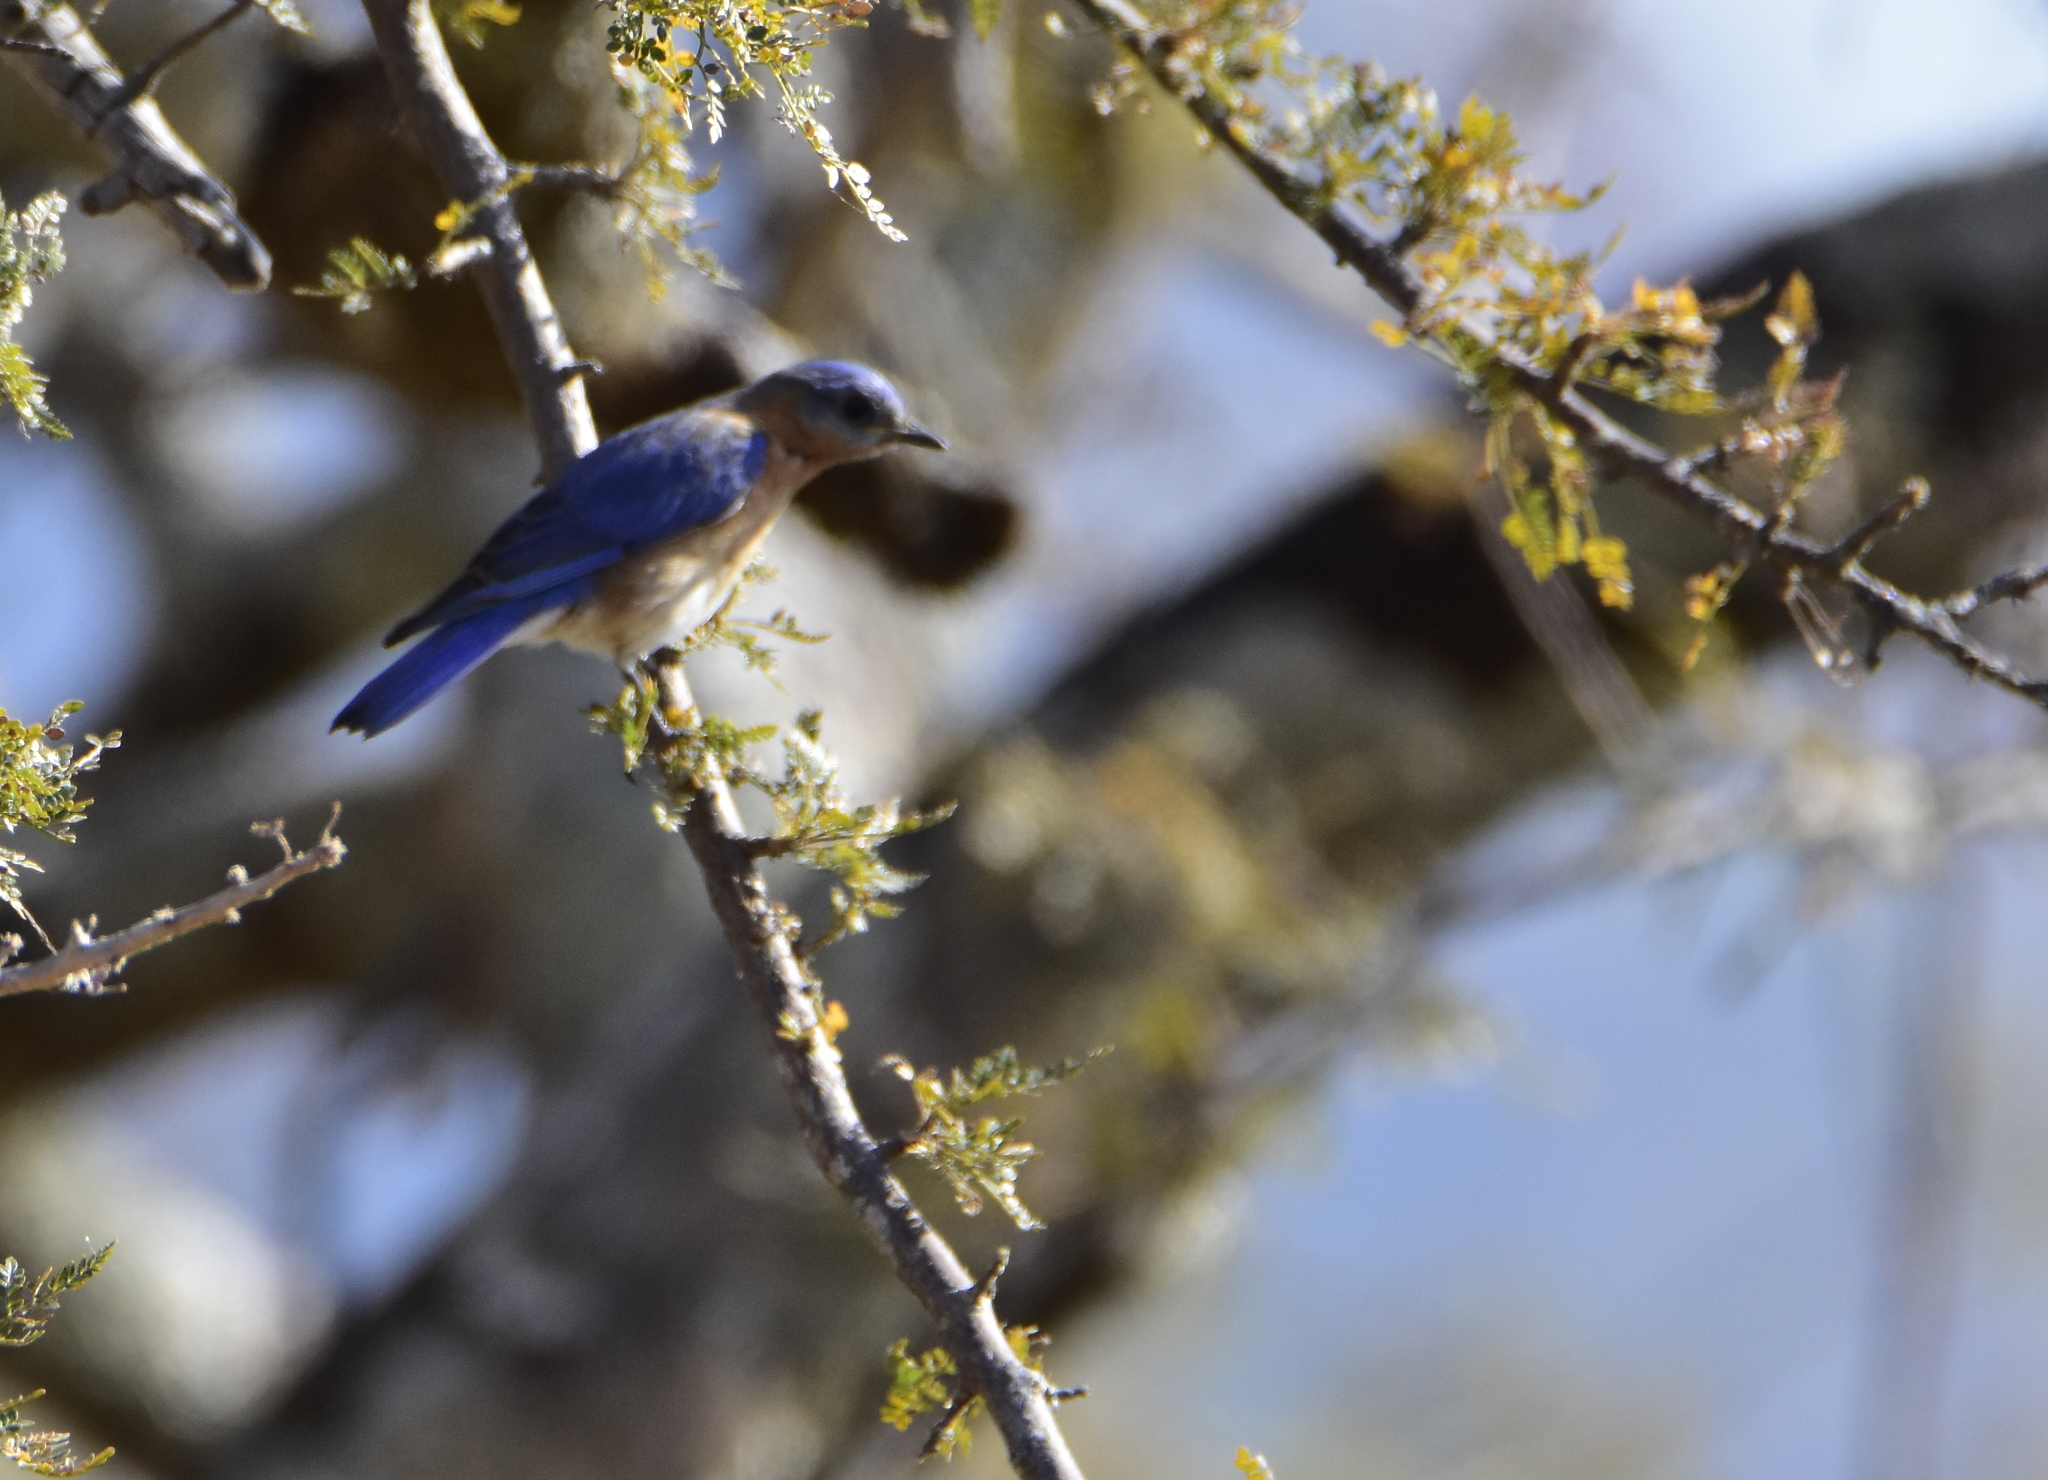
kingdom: Animalia
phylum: Chordata
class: Aves
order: Passeriformes
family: Turdidae
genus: Sialia
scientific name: Sialia sialis
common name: Eastern bluebird
